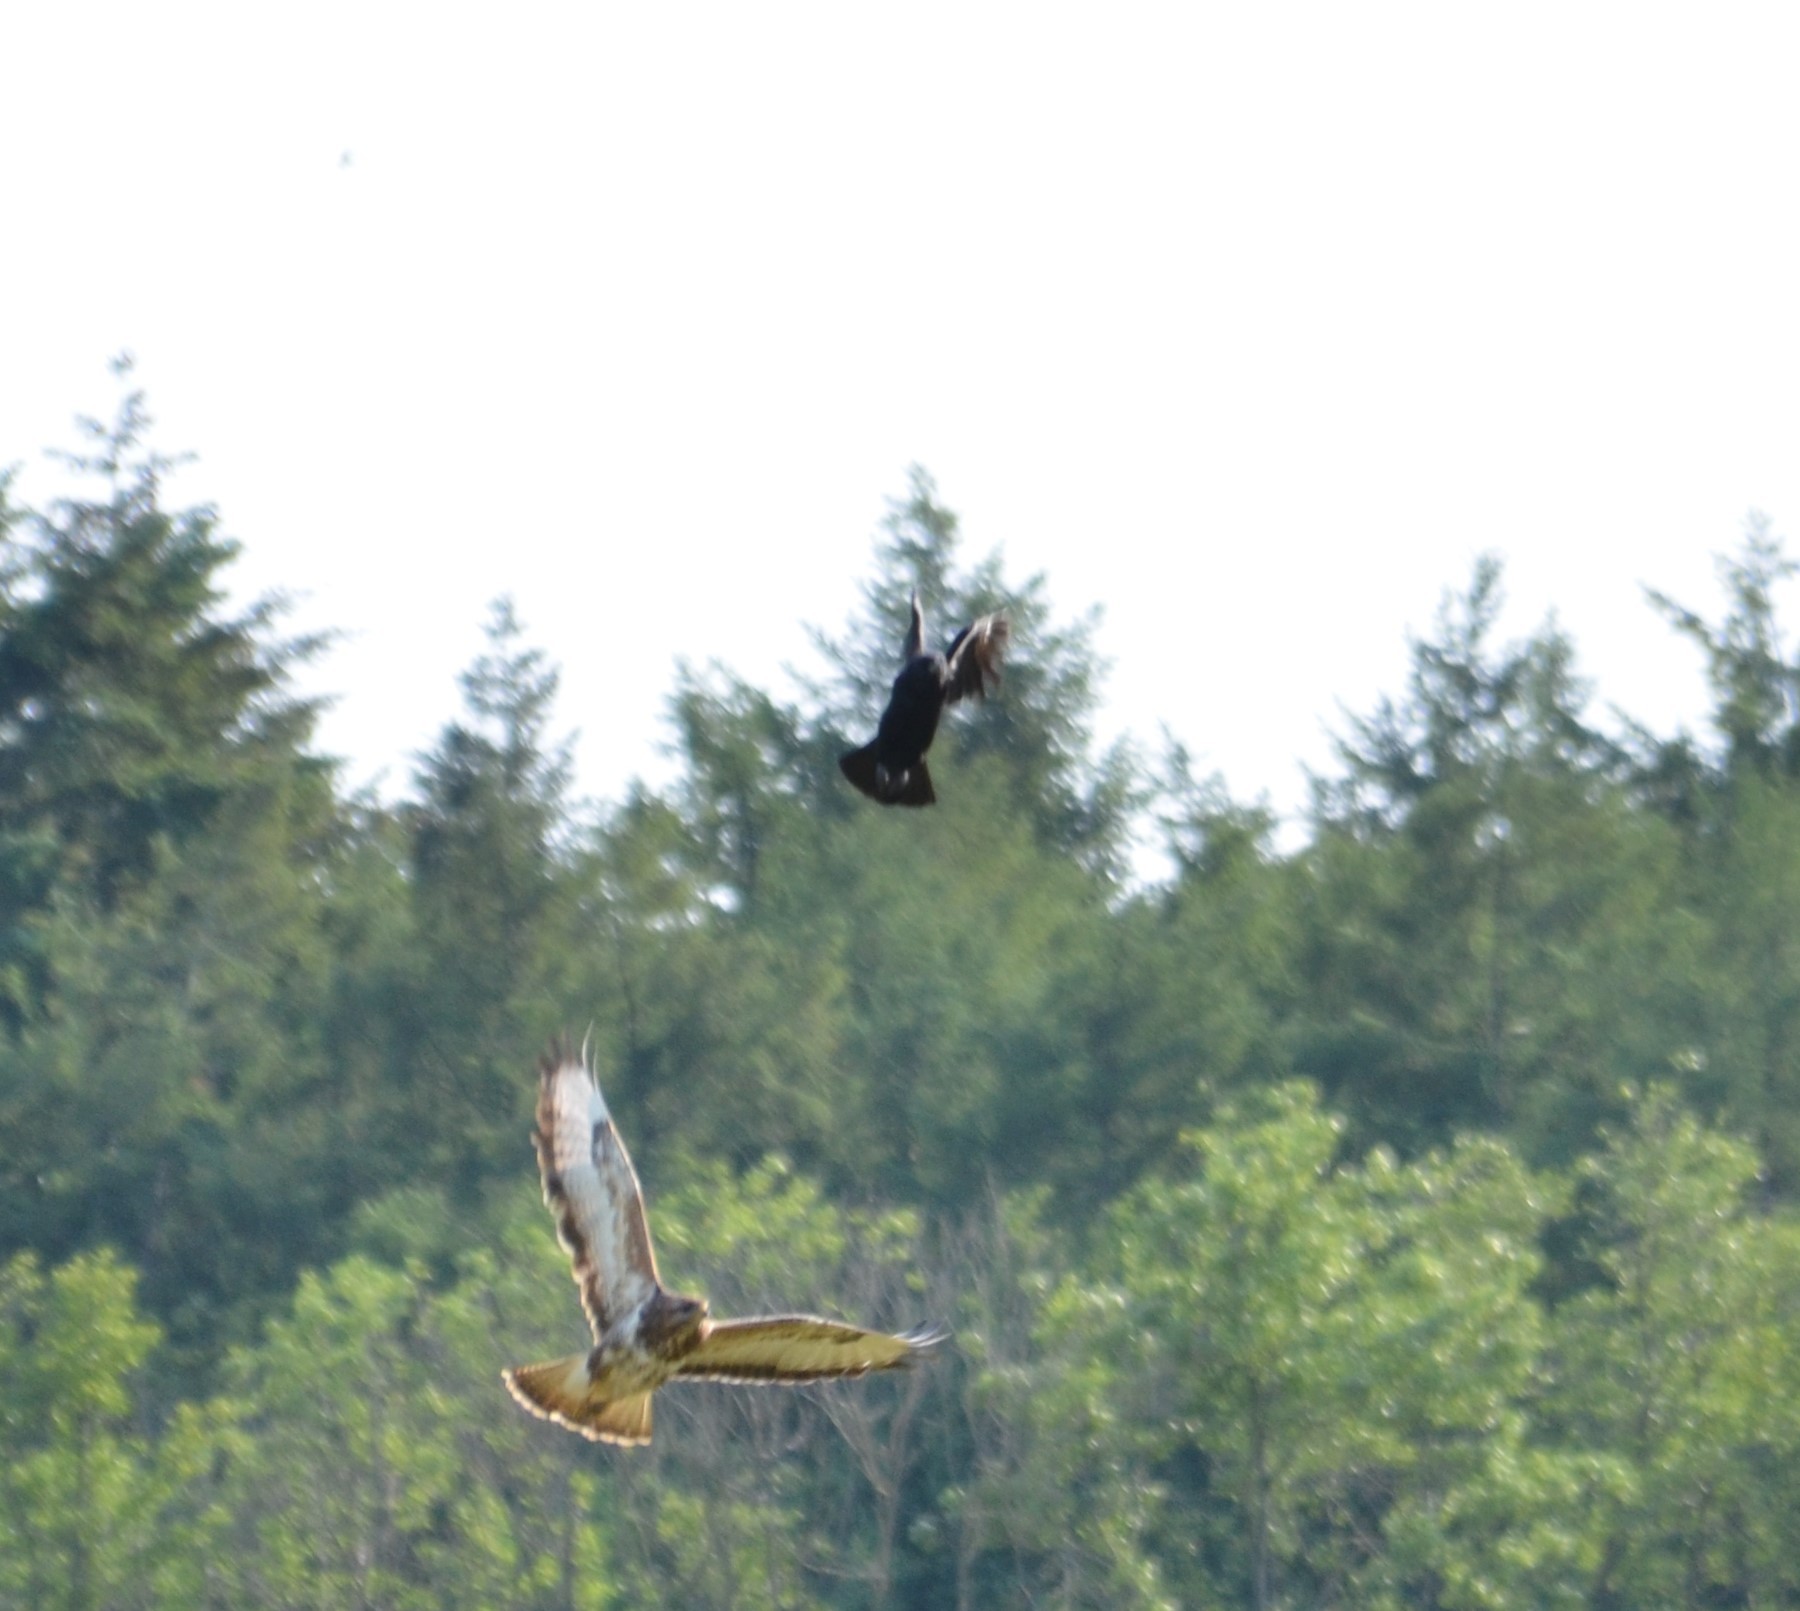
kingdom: Animalia
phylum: Chordata
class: Aves
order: Passeriformes
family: Corvidae
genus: Corvus
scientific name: Corvus corone
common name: Carrion crow
